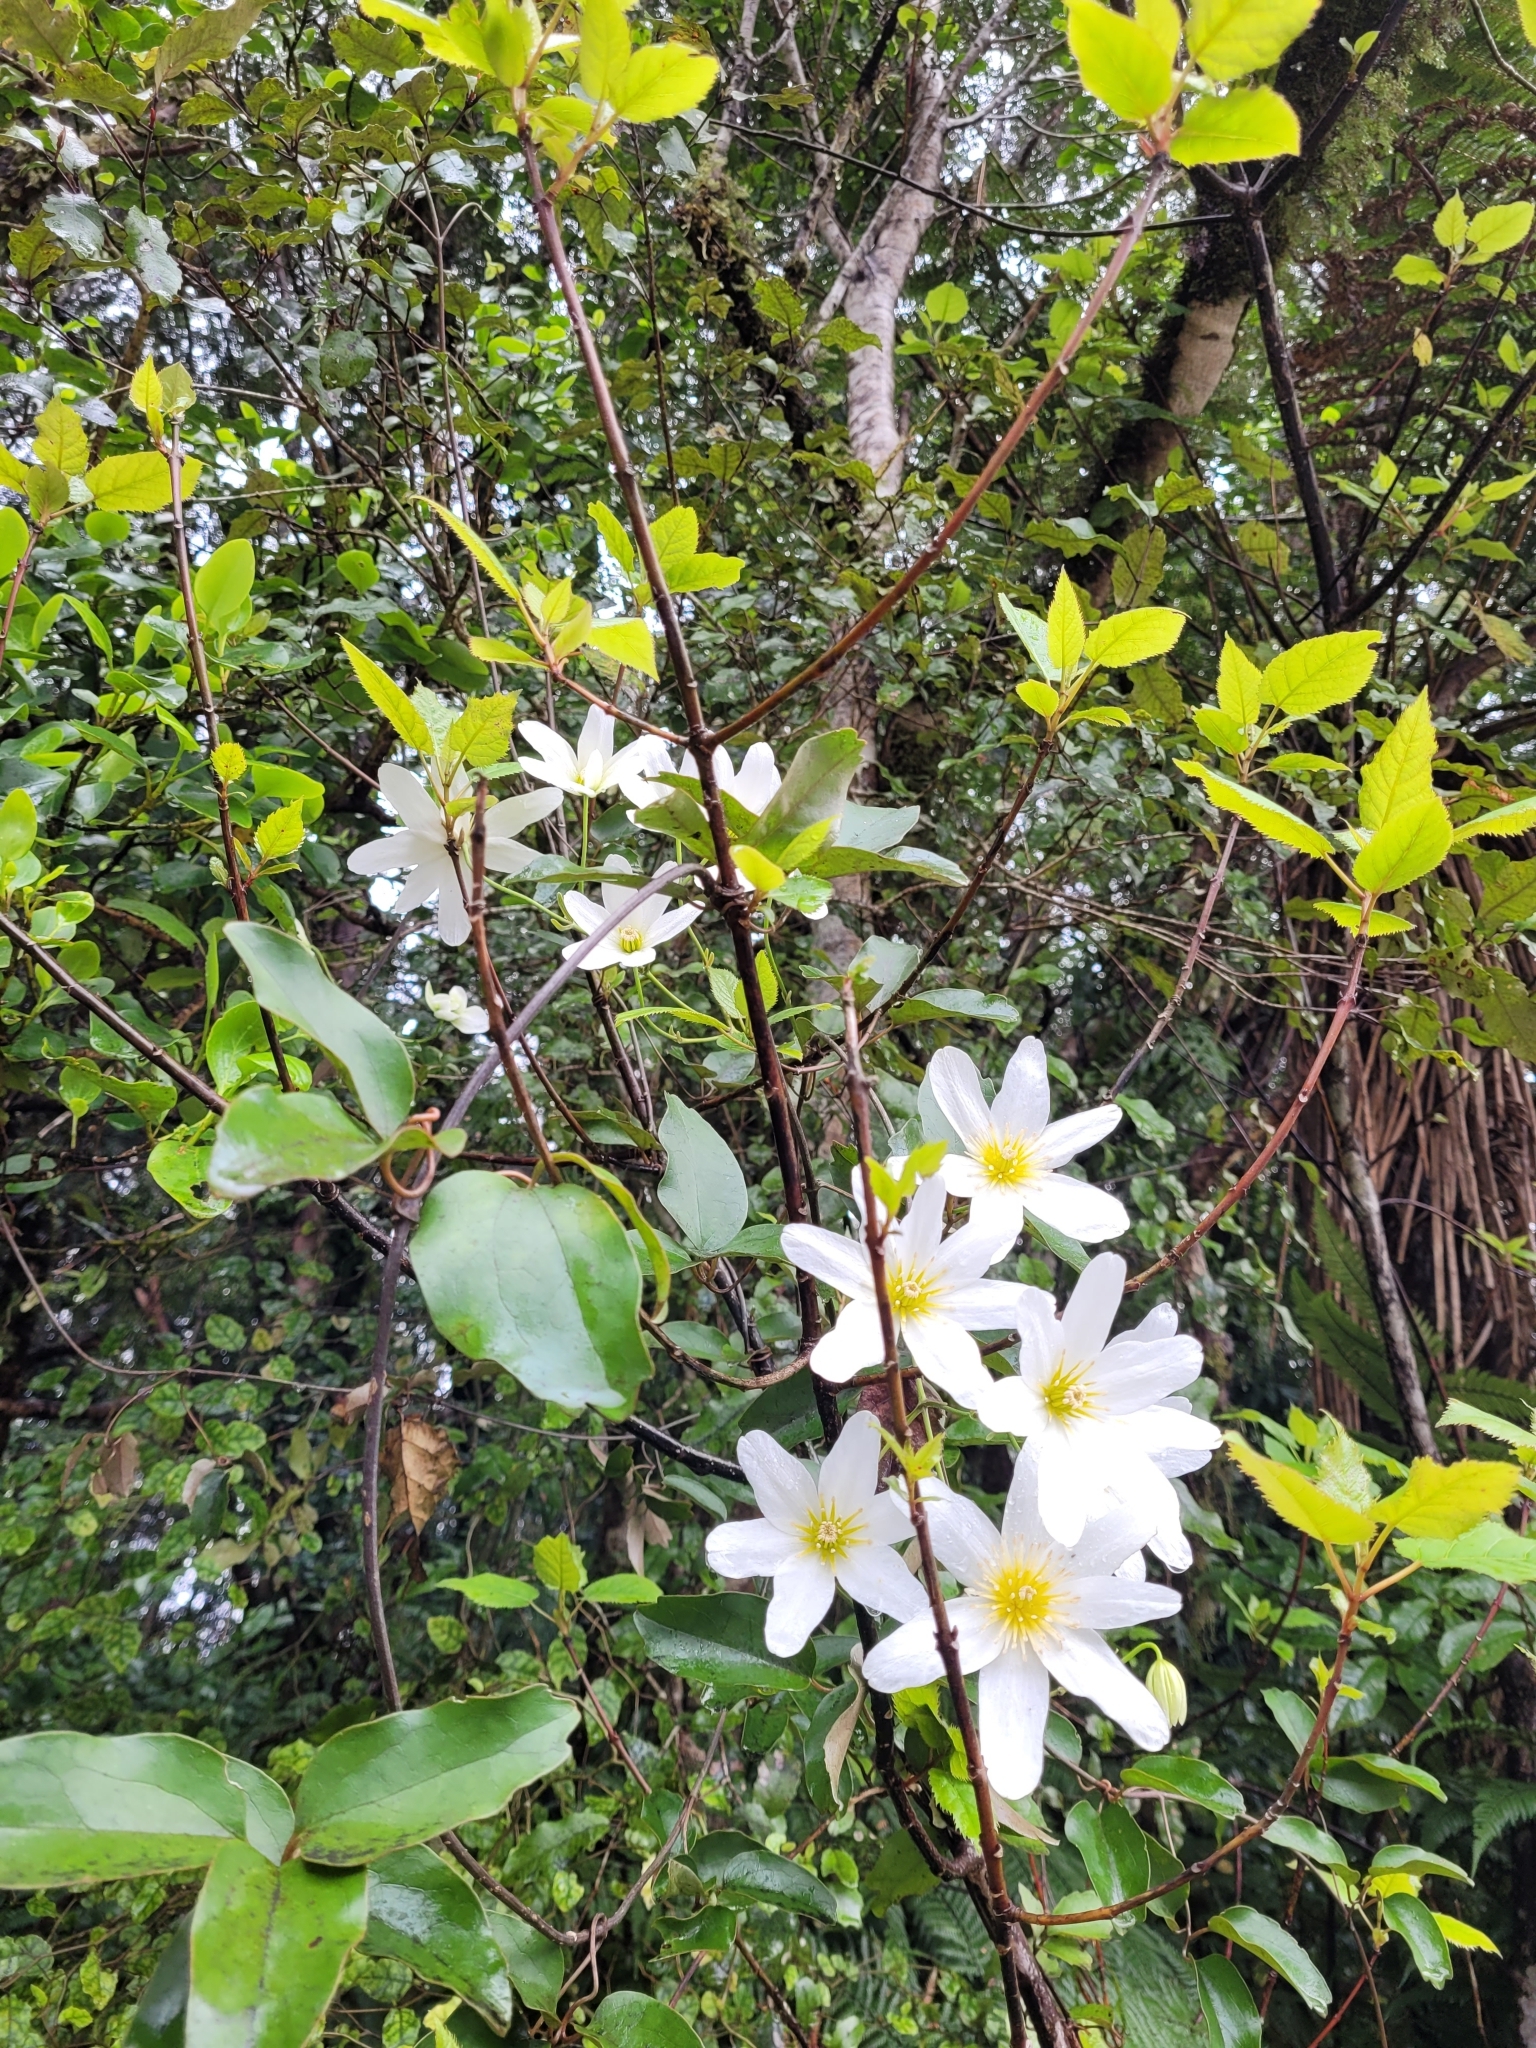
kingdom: Plantae
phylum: Tracheophyta
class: Magnoliopsida
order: Ranunculales
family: Ranunculaceae
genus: Clematis
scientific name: Clematis paniculata
